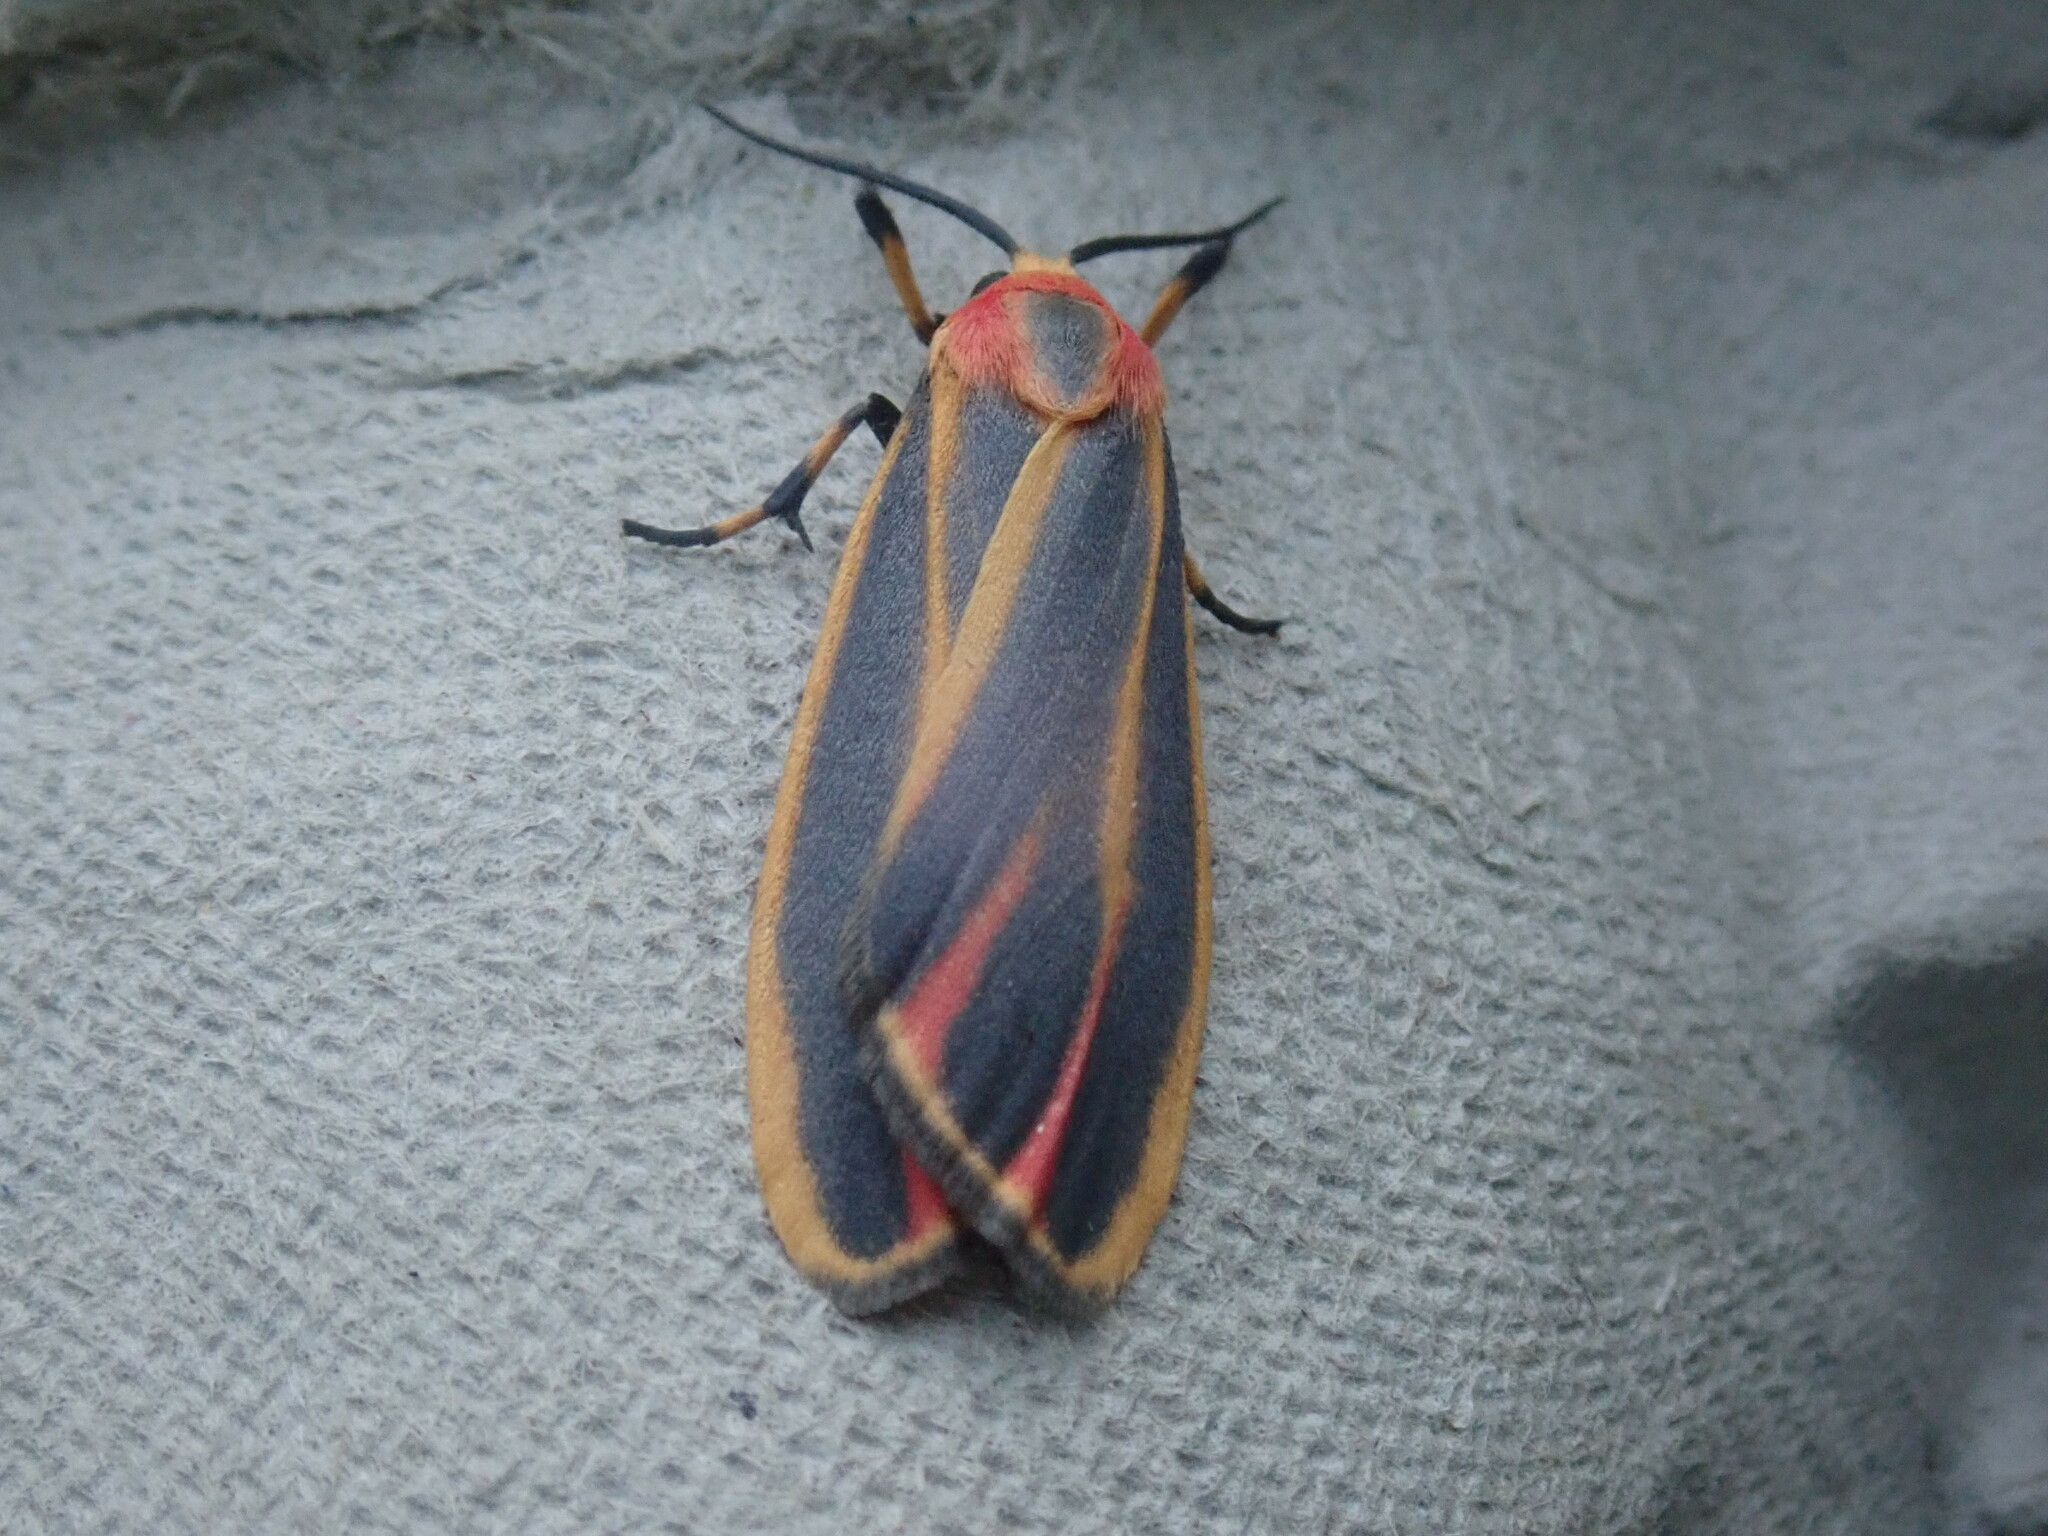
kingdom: Animalia
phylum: Arthropoda
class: Insecta
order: Lepidoptera
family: Erebidae
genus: Hypoprepia
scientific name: Hypoprepia fucosa
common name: Painted lichen moth
